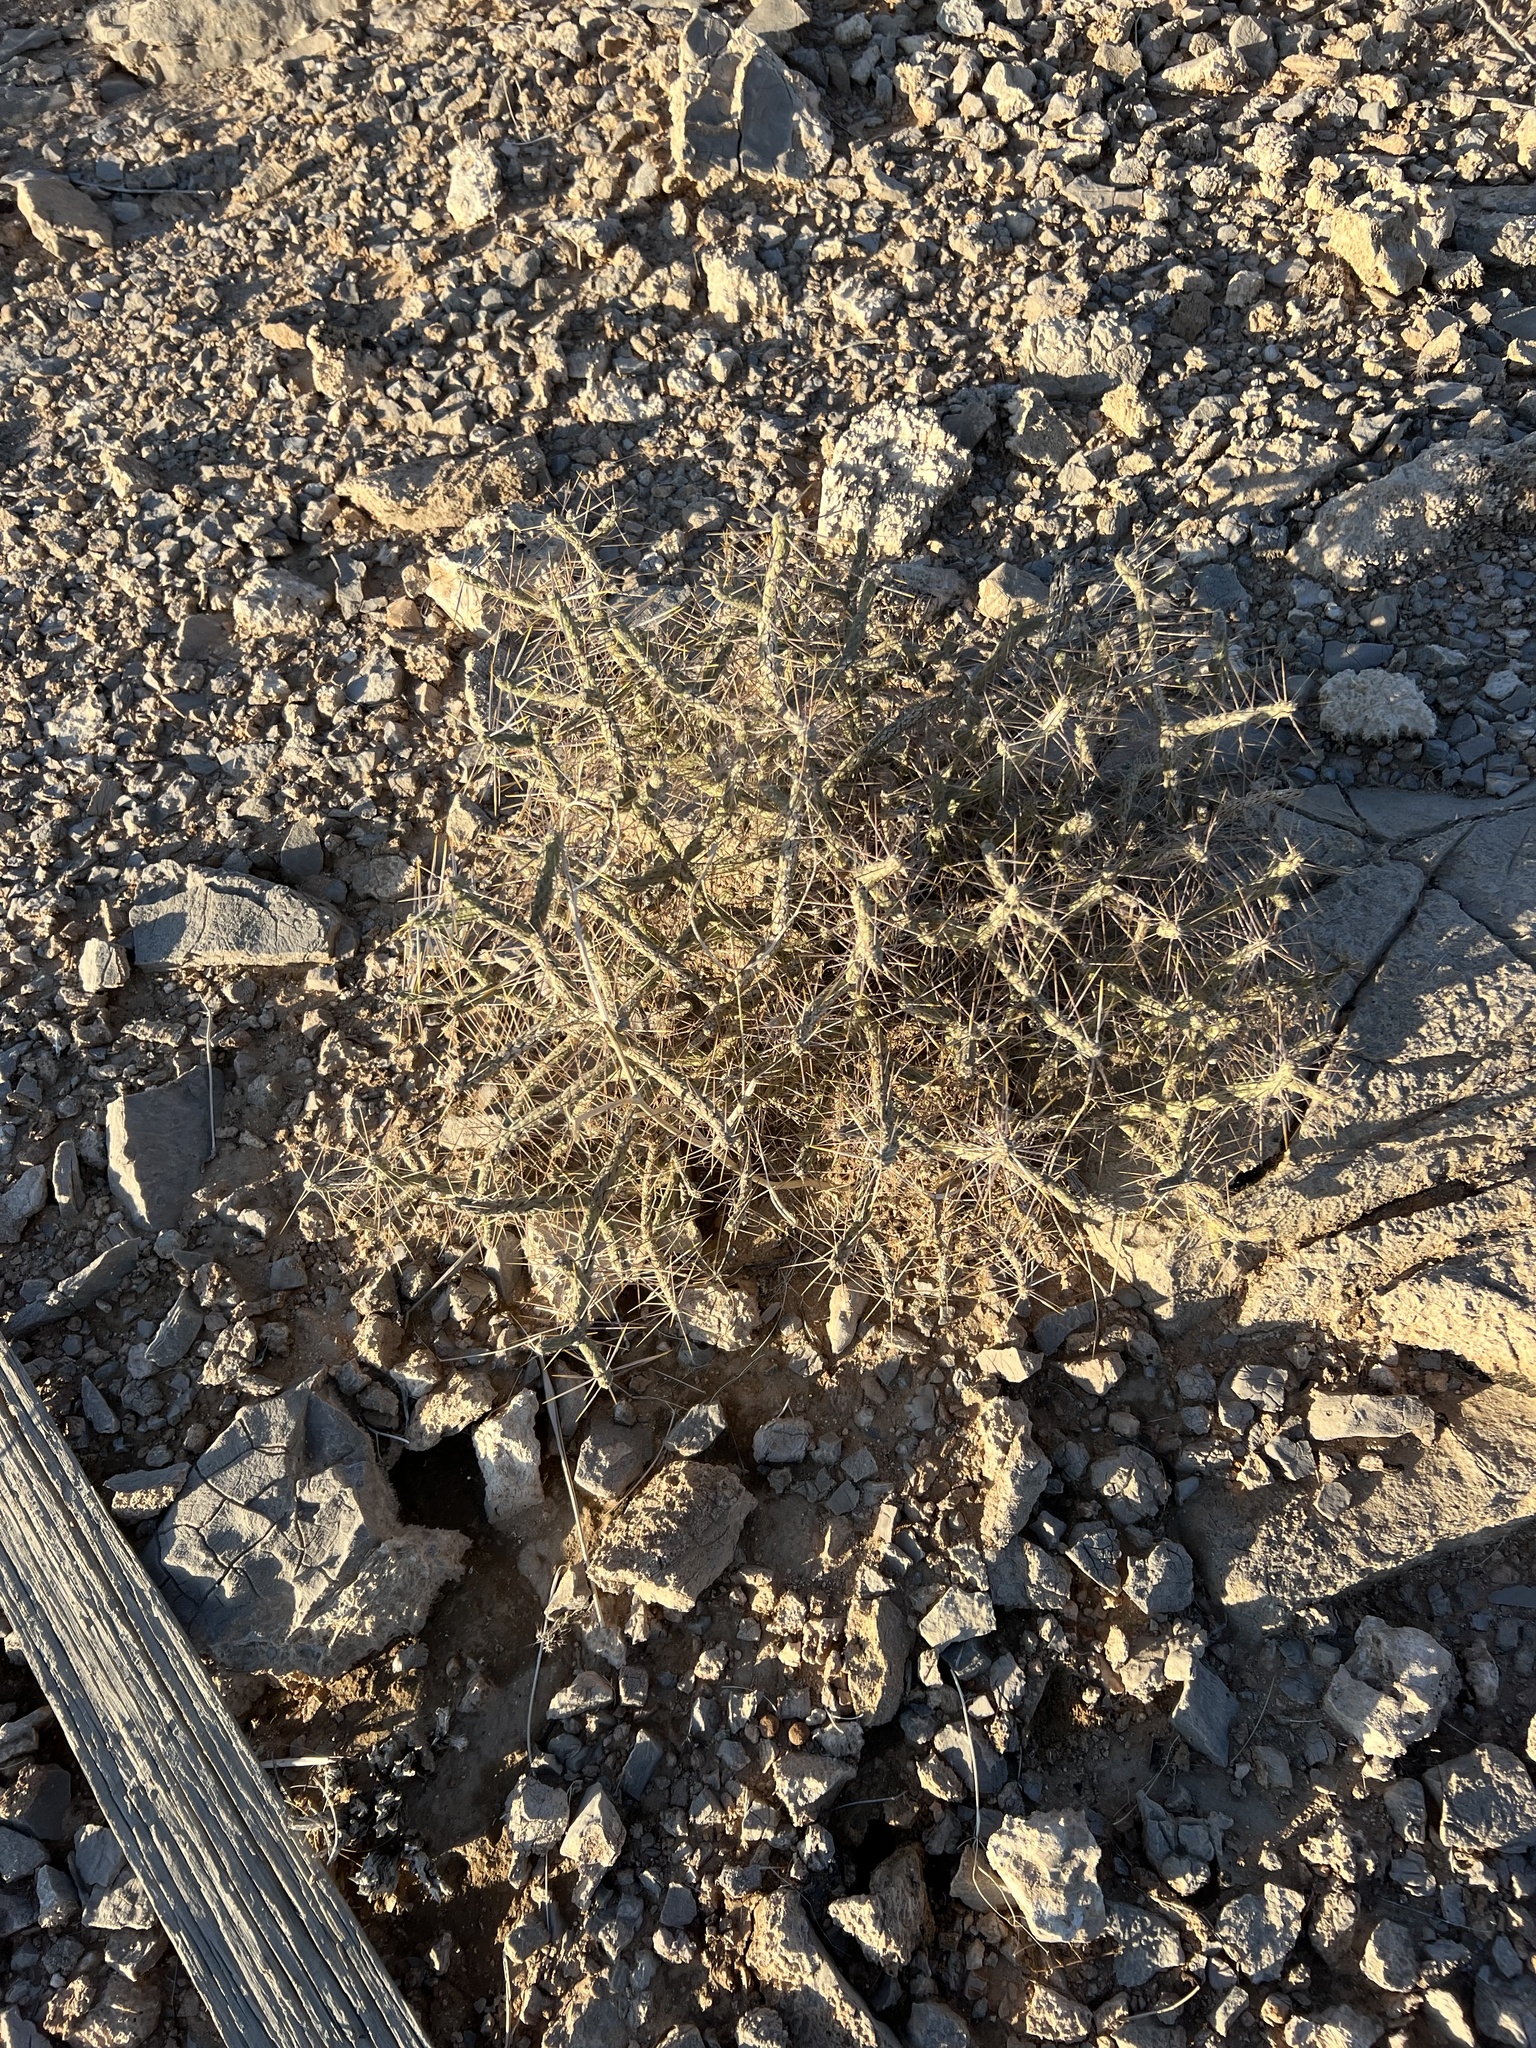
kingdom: Plantae
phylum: Tracheophyta
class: Magnoliopsida
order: Caryophyllales
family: Cactaceae
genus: Cylindropuntia
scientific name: Cylindropuntia ramosissima
